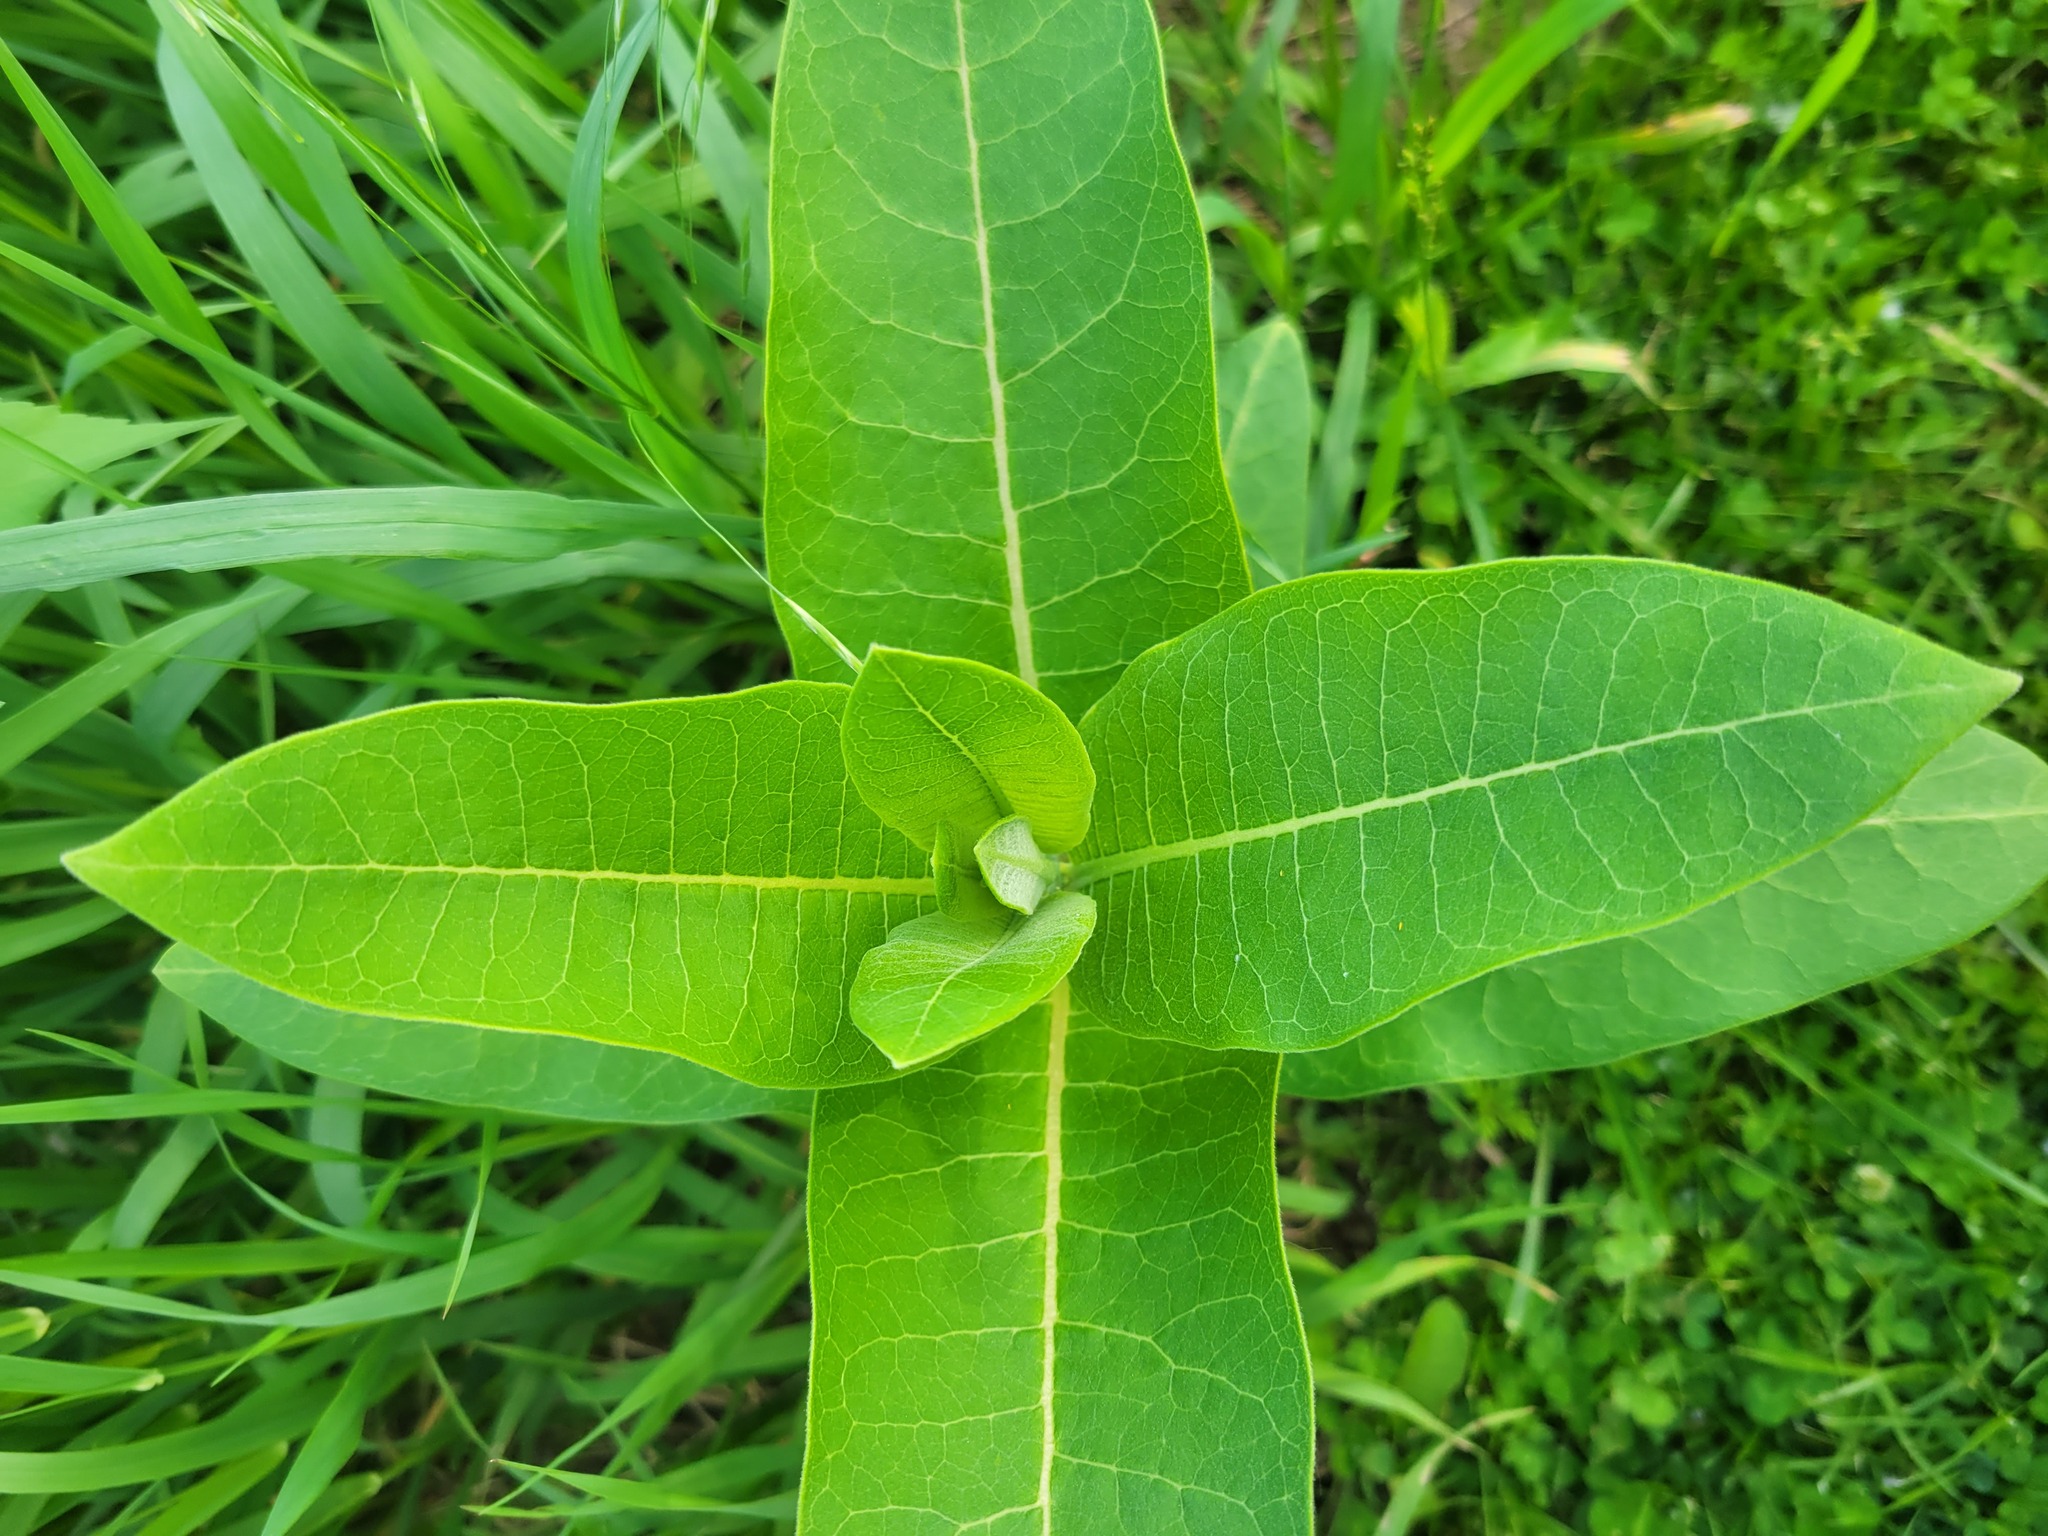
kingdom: Plantae
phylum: Tracheophyta
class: Magnoliopsida
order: Gentianales
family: Apocynaceae
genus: Asclepias
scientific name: Asclepias syriaca
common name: Common milkweed
